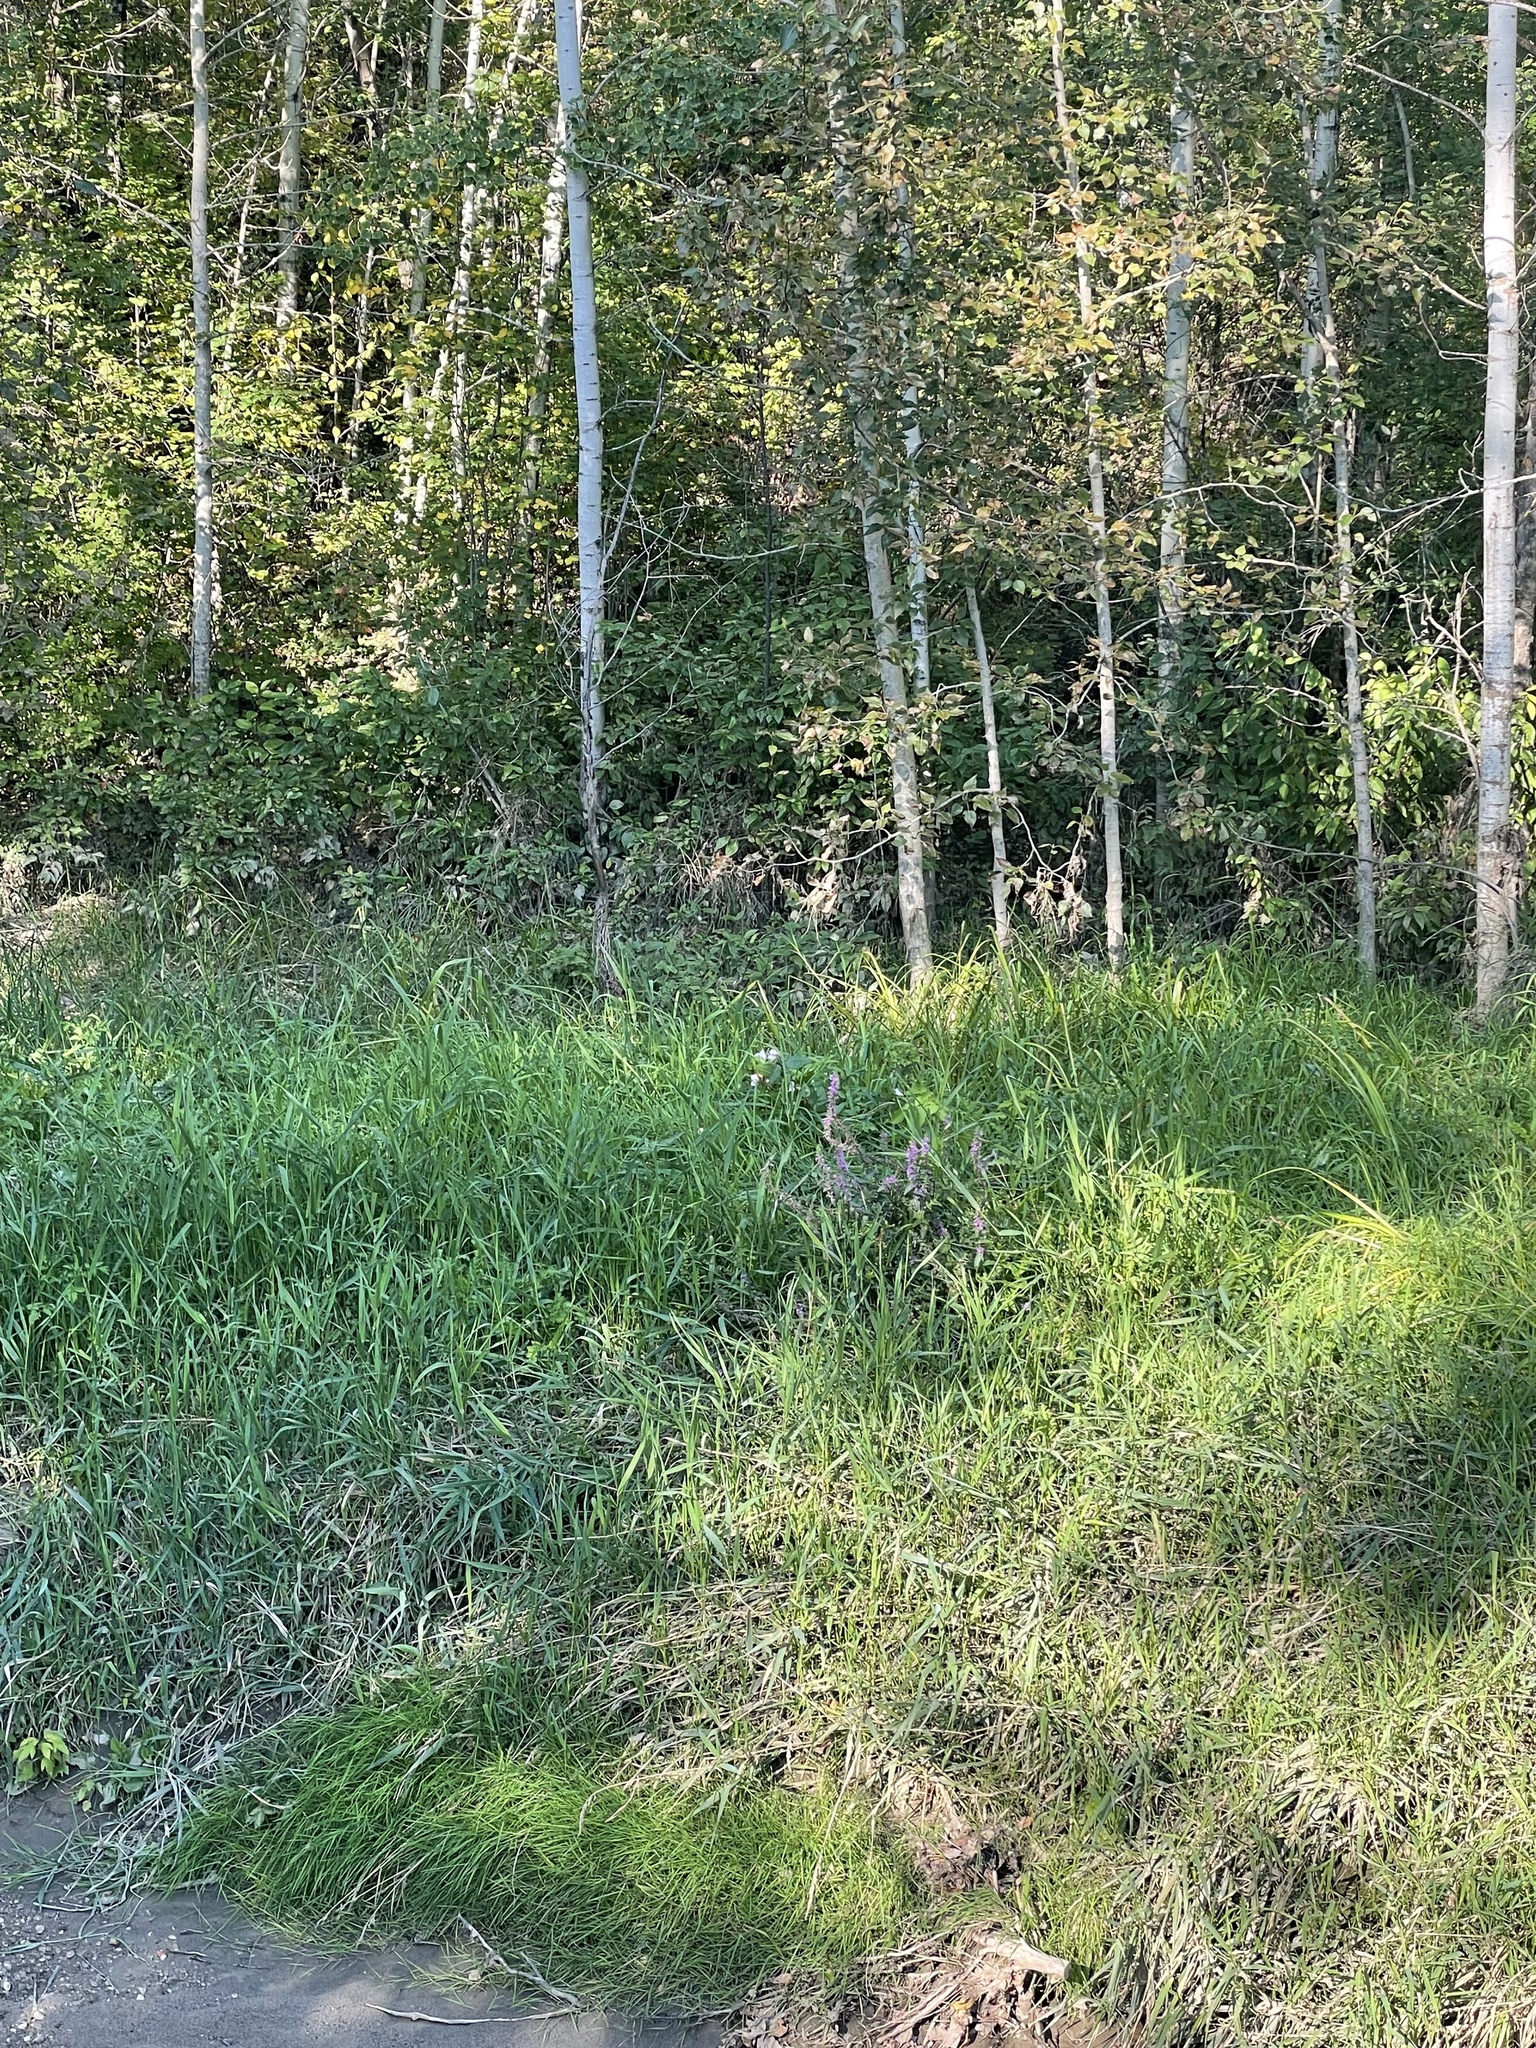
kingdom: Plantae
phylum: Tracheophyta
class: Magnoliopsida
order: Myrtales
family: Lythraceae
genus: Lythrum
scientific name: Lythrum salicaria
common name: Purple loosestrife
